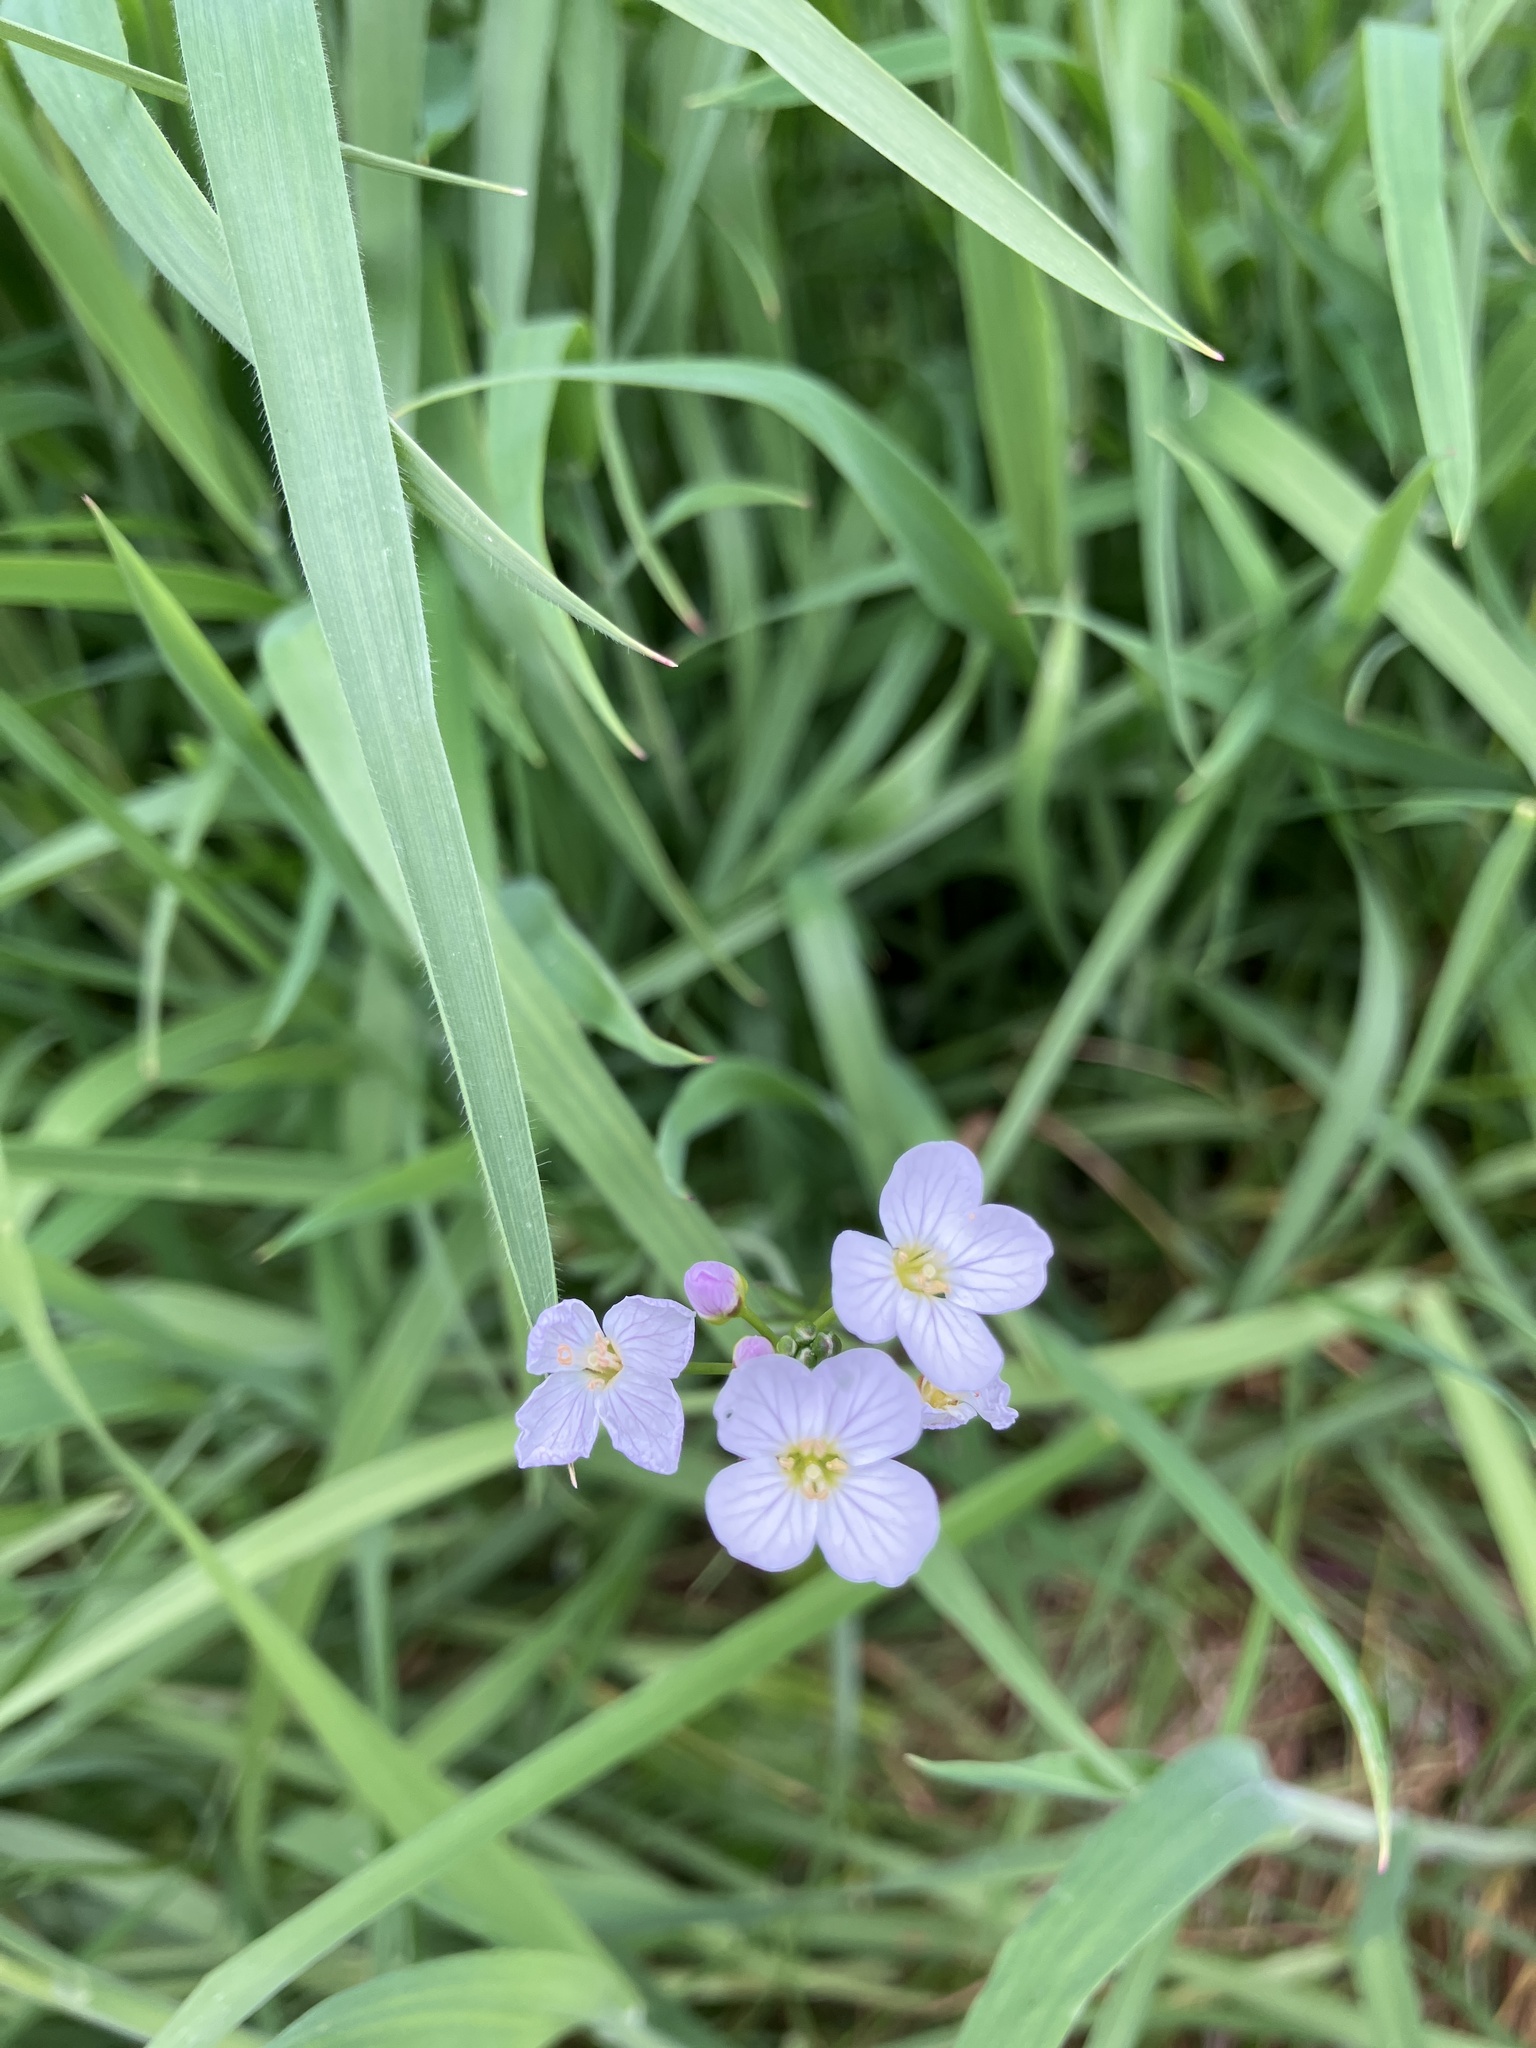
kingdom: Plantae
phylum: Tracheophyta
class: Magnoliopsida
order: Brassicales
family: Brassicaceae
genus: Cardamine
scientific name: Cardamine pratensis
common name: Cuckoo flower
